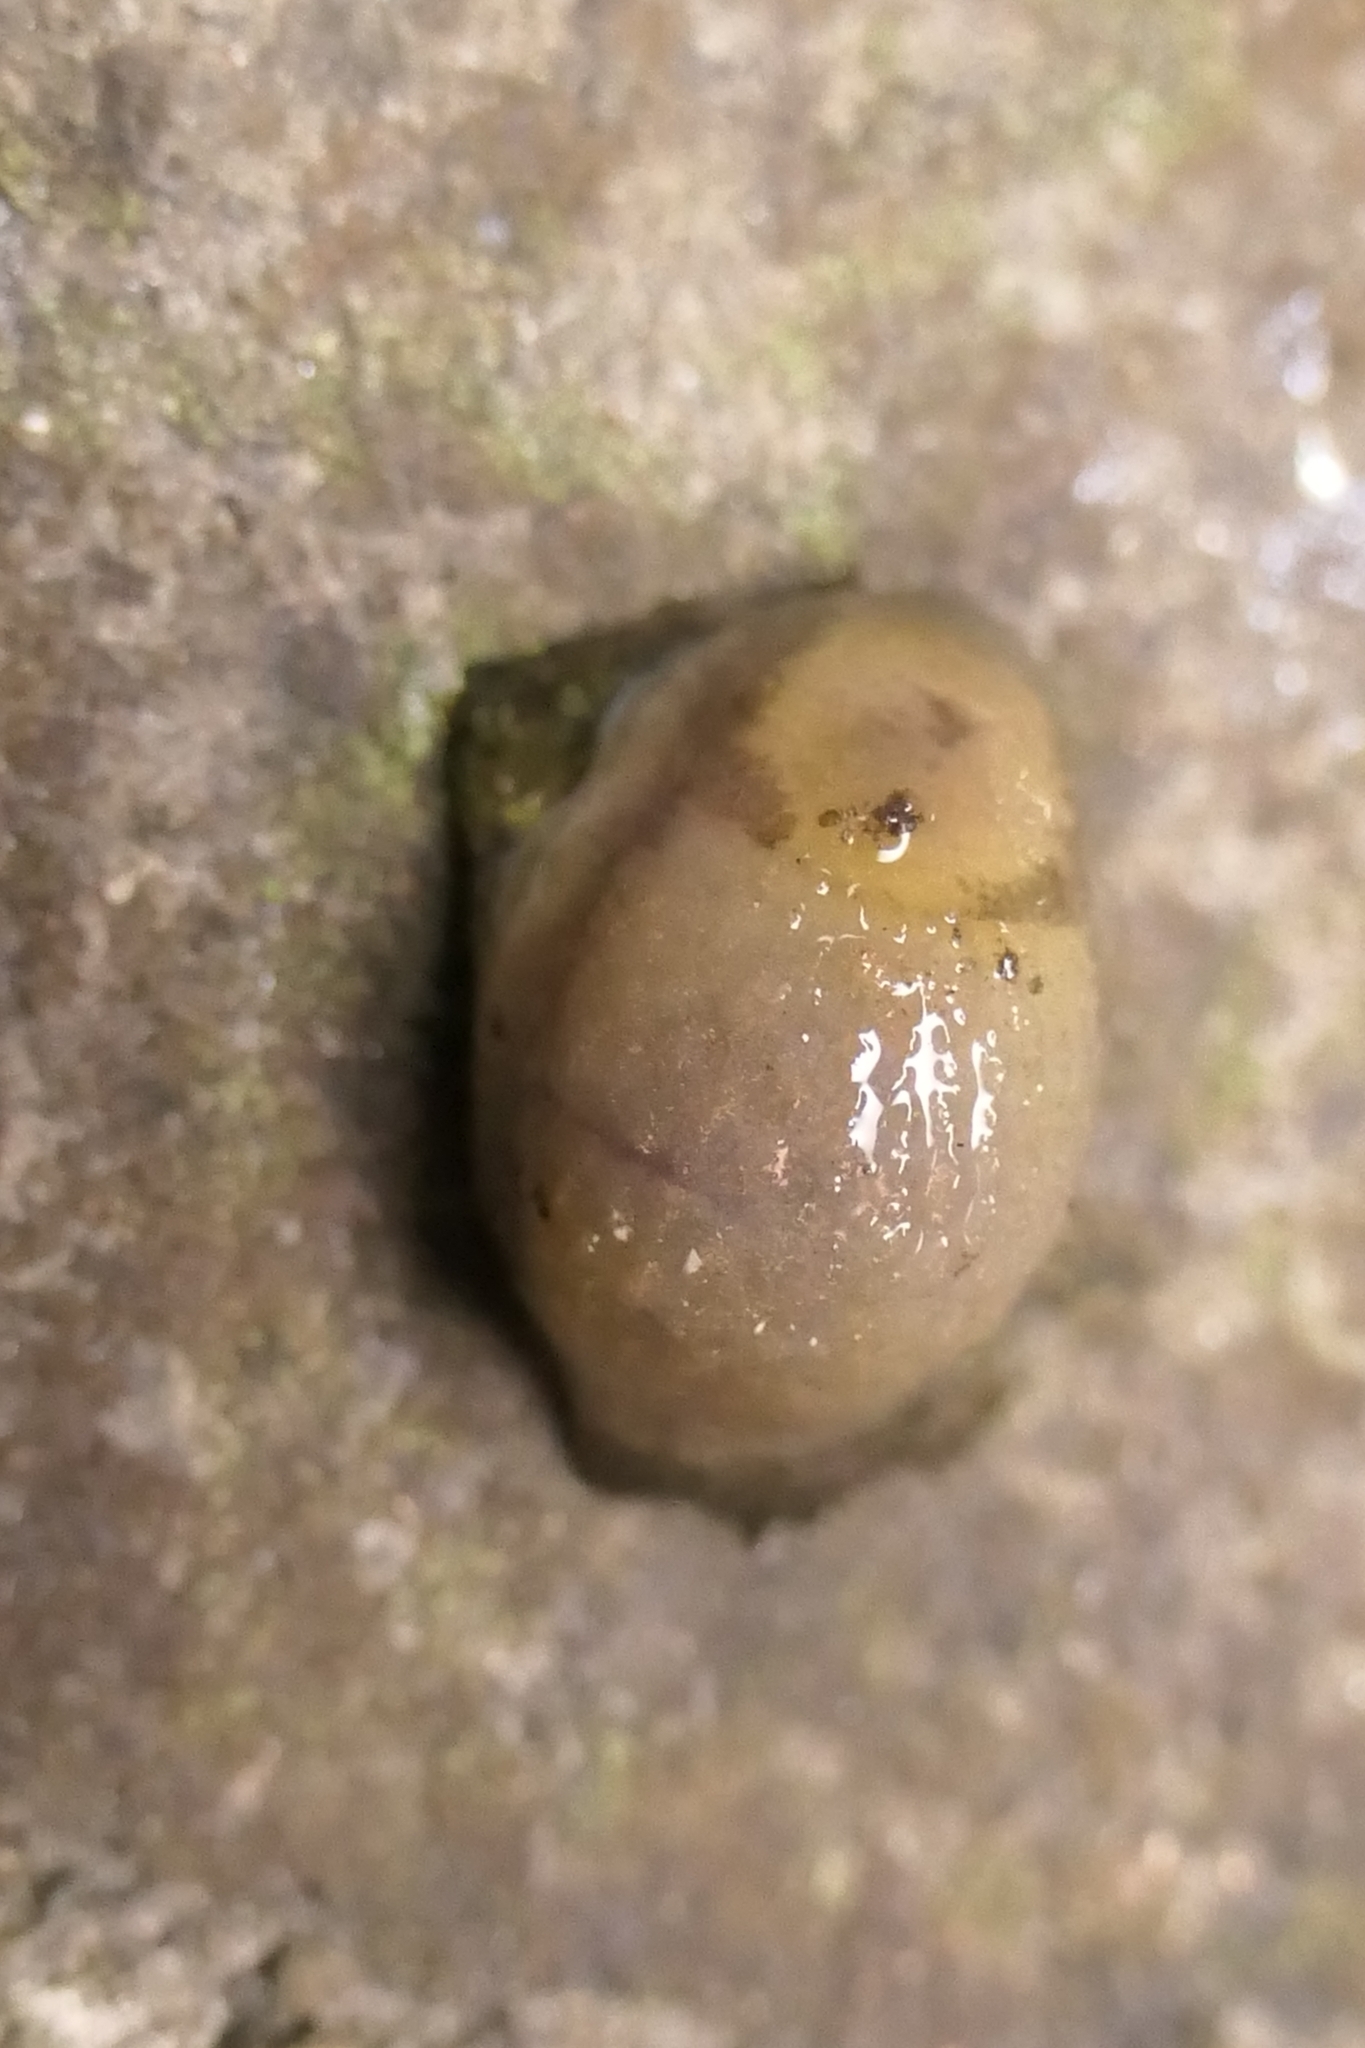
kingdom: Animalia
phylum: Mollusca
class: Gastropoda
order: Stylommatophora
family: Arionidae
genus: Arion
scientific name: Arion intermedius
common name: Hedgehog slug
